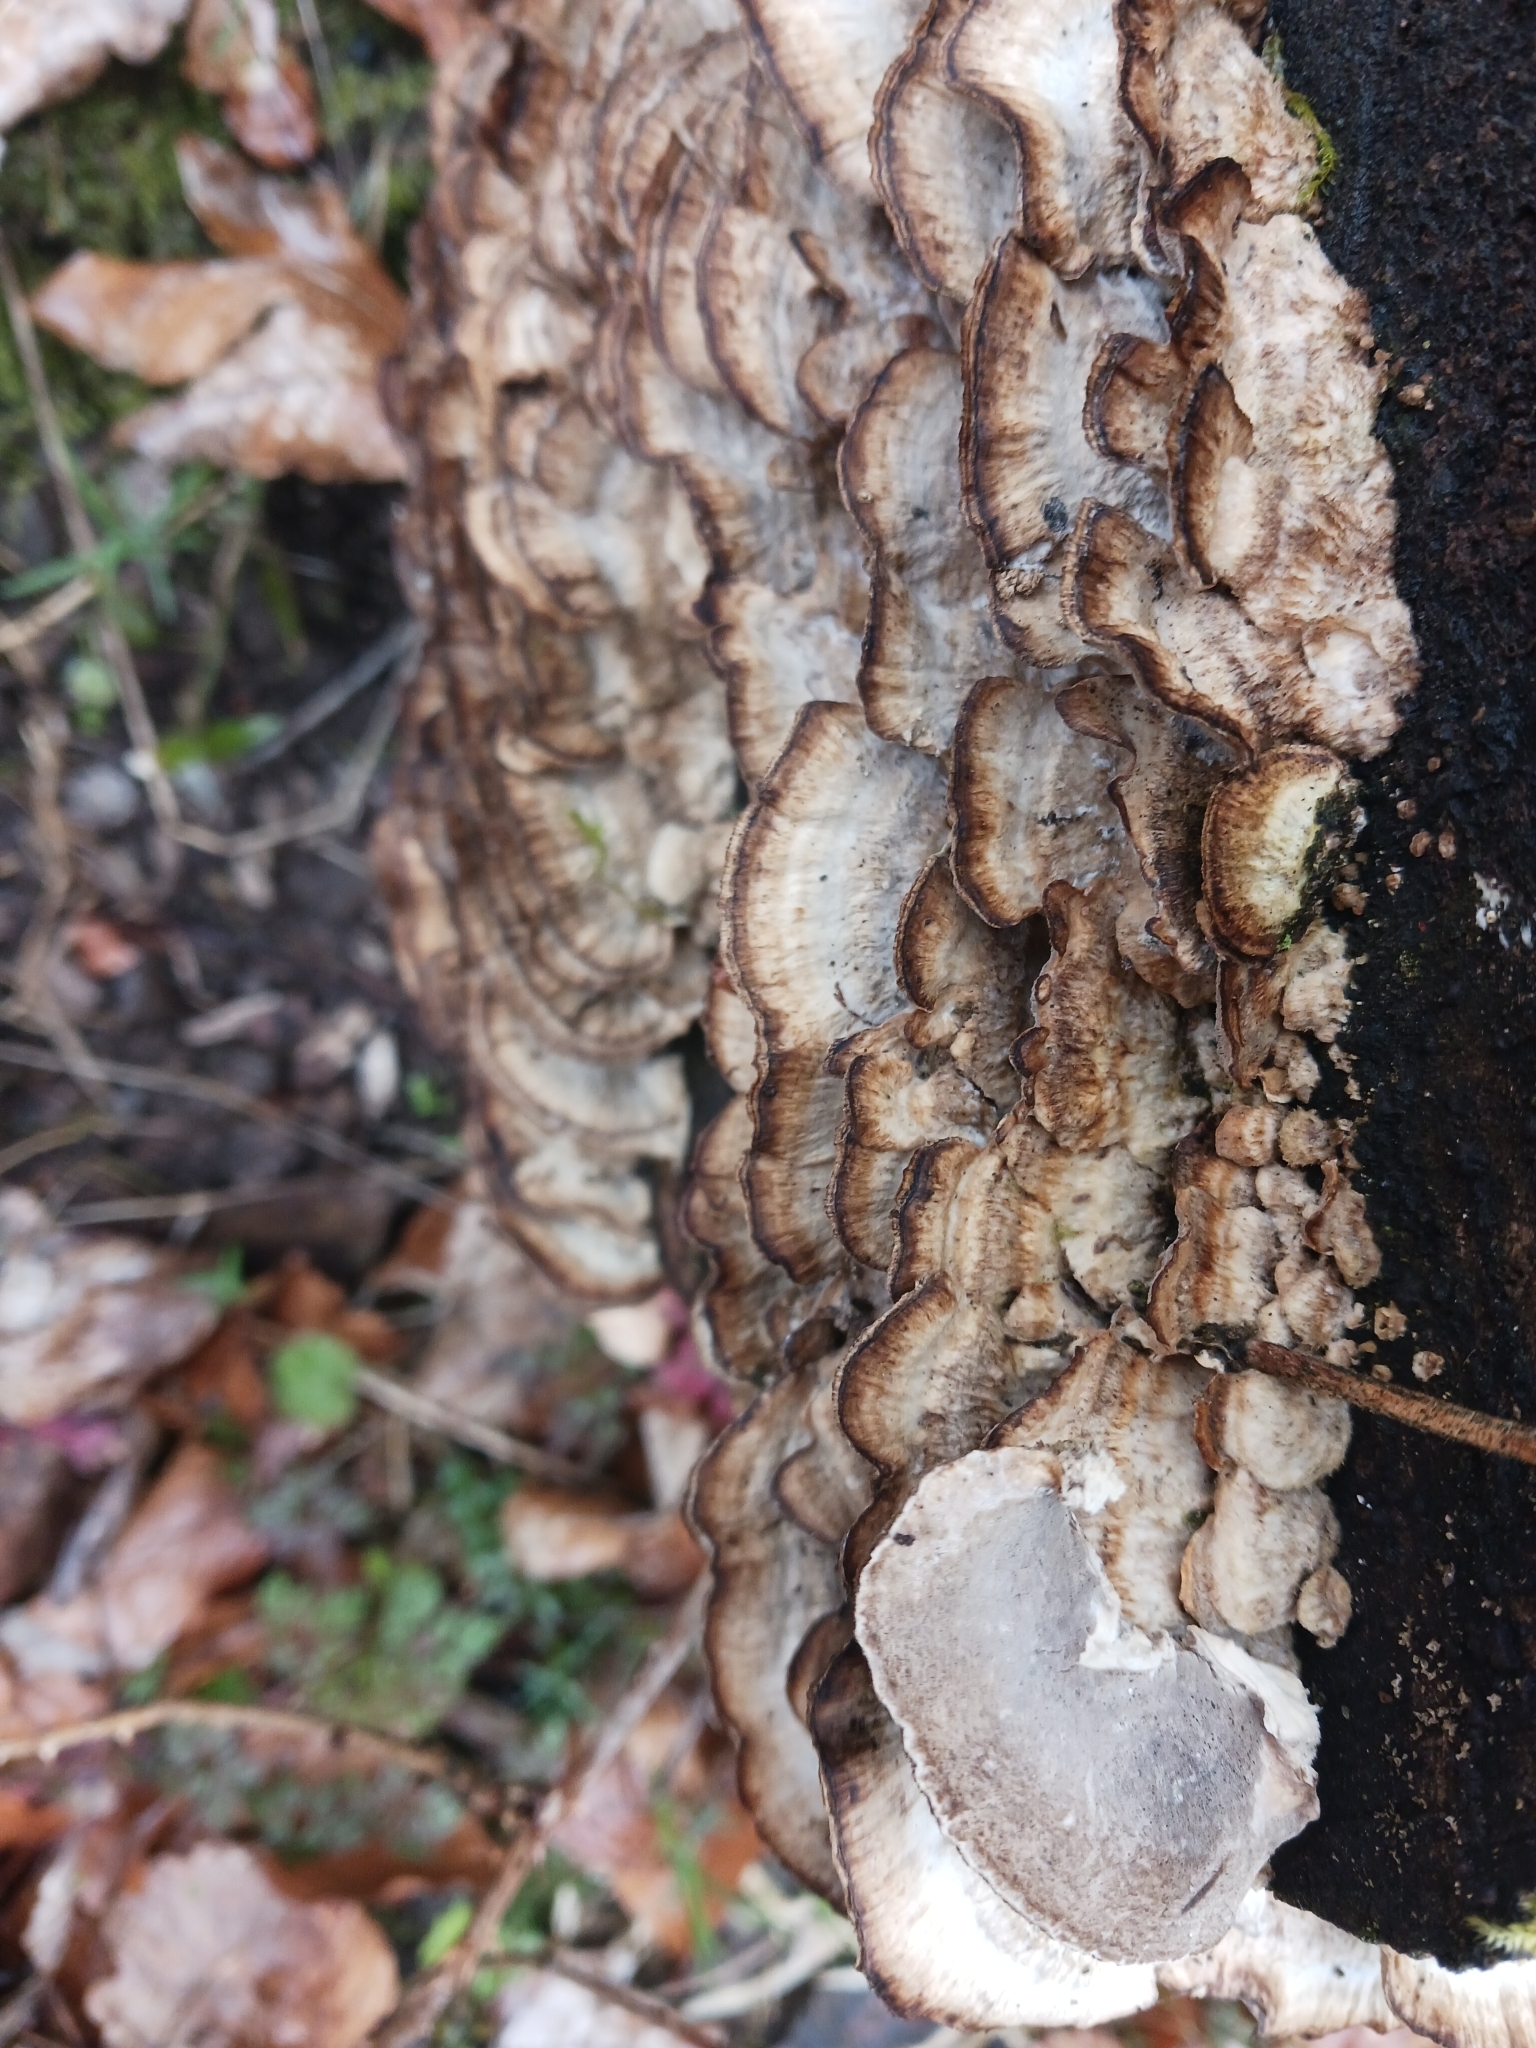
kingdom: Fungi
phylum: Basidiomycota
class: Agaricomycetes
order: Polyporales
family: Phanerochaetaceae
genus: Bjerkandera
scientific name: Bjerkandera adusta
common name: Smoky bracket
